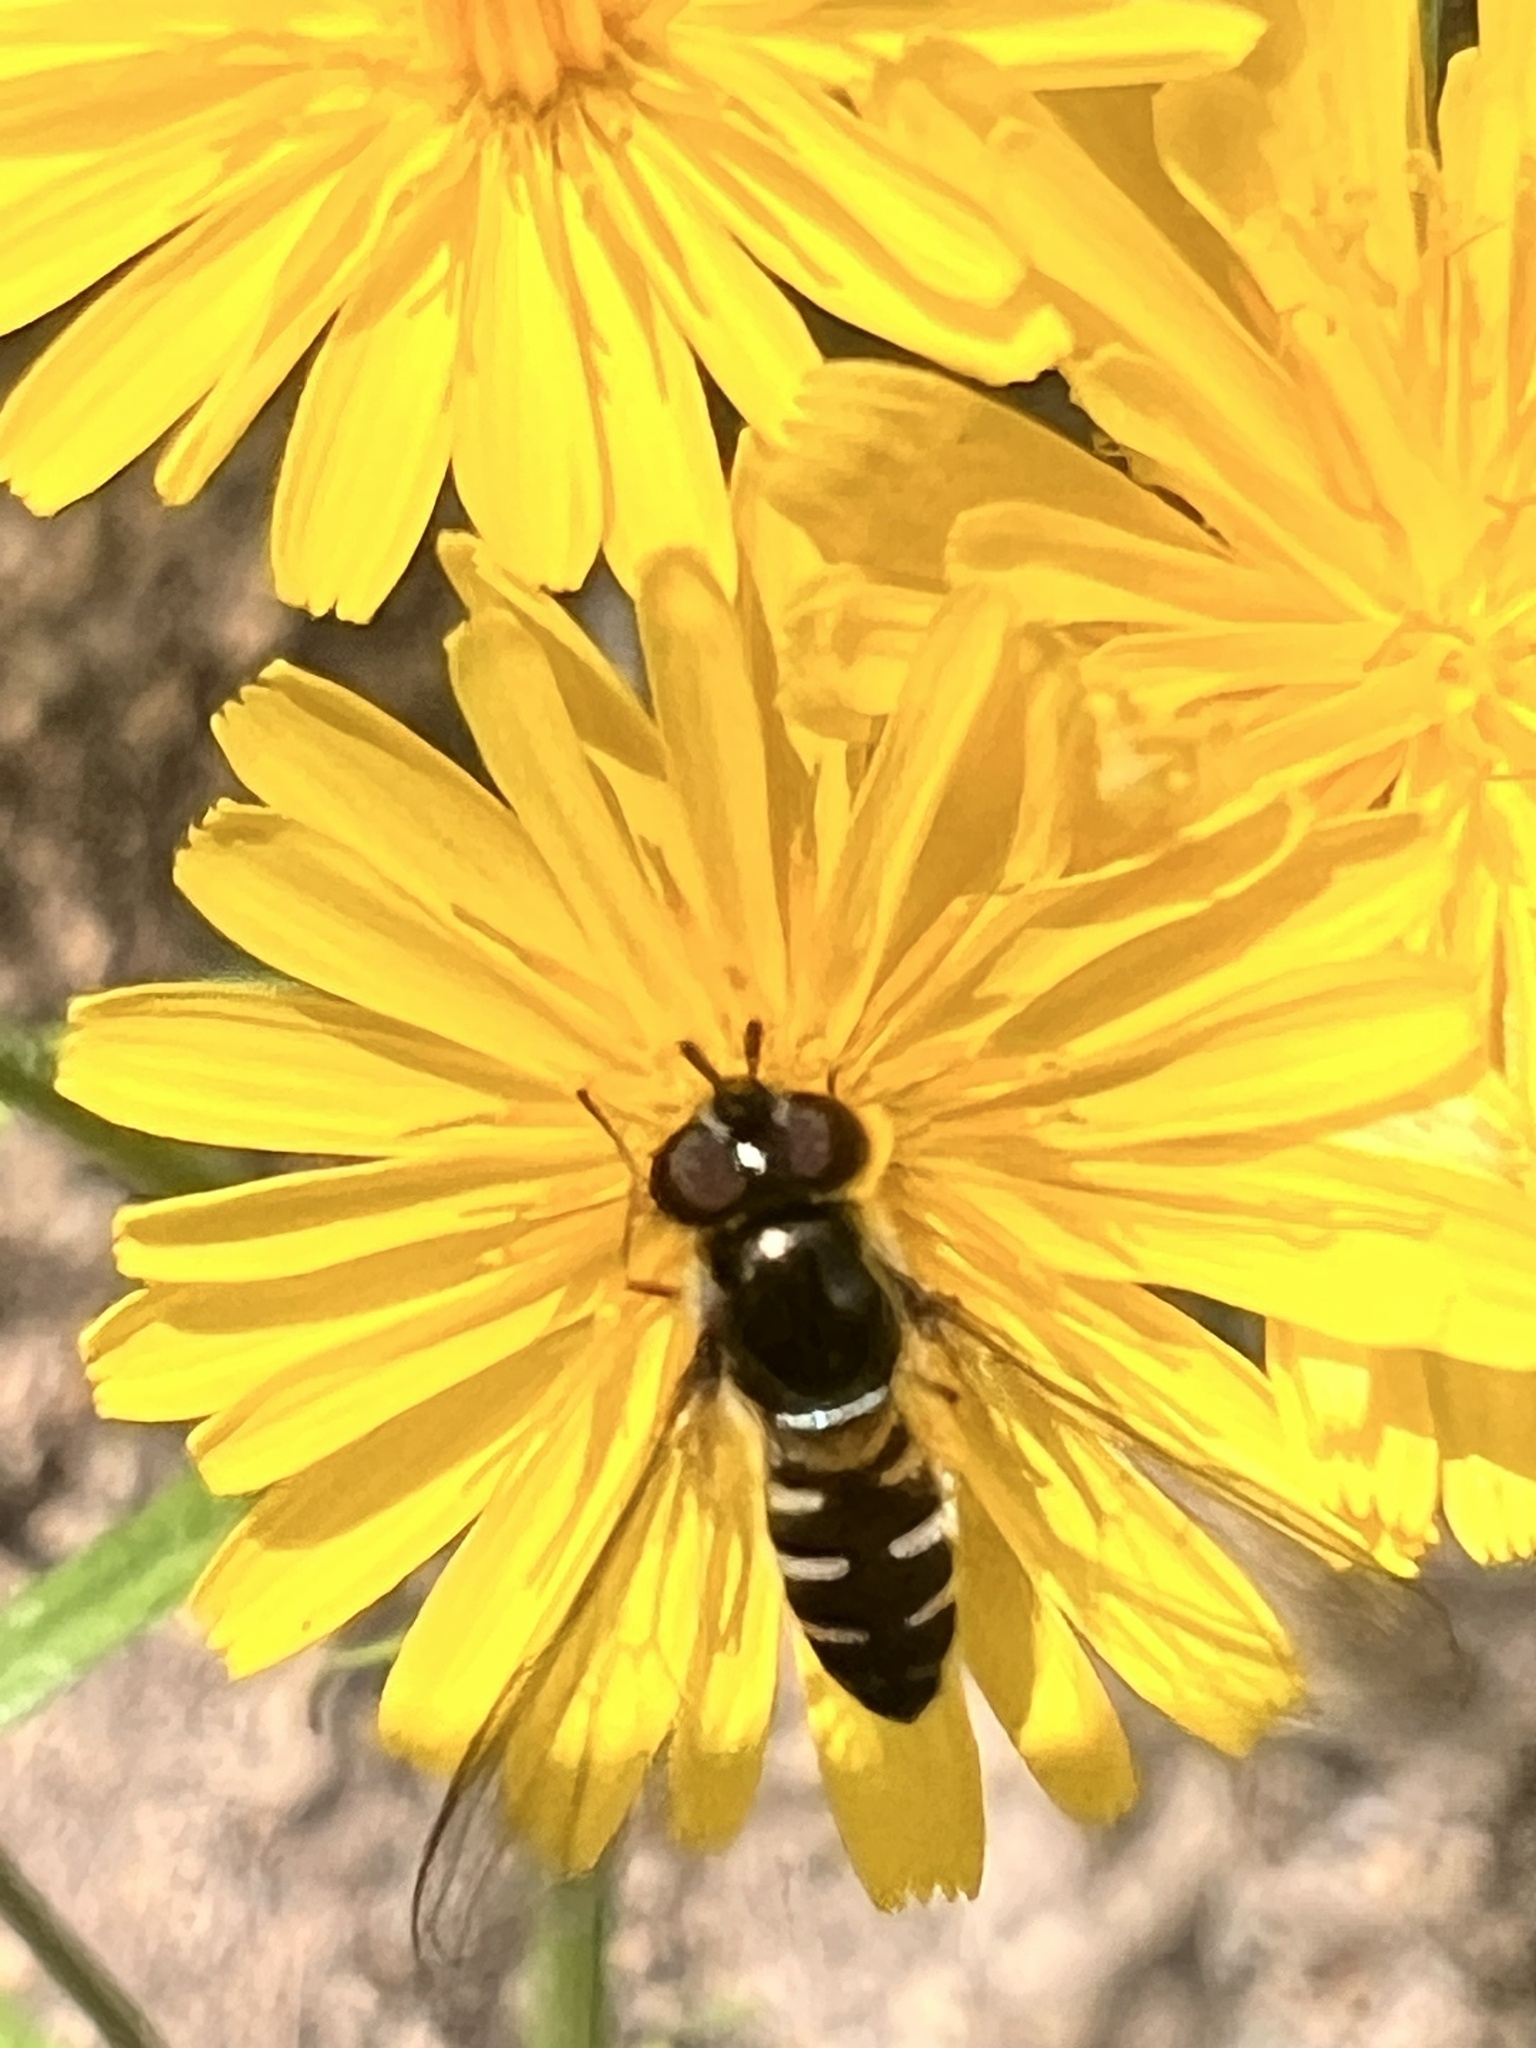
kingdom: Animalia
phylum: Arthropoda
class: Insecta
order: Diptera
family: Syrphidae
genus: Melangyna
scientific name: Melangyna novaezelandiae
